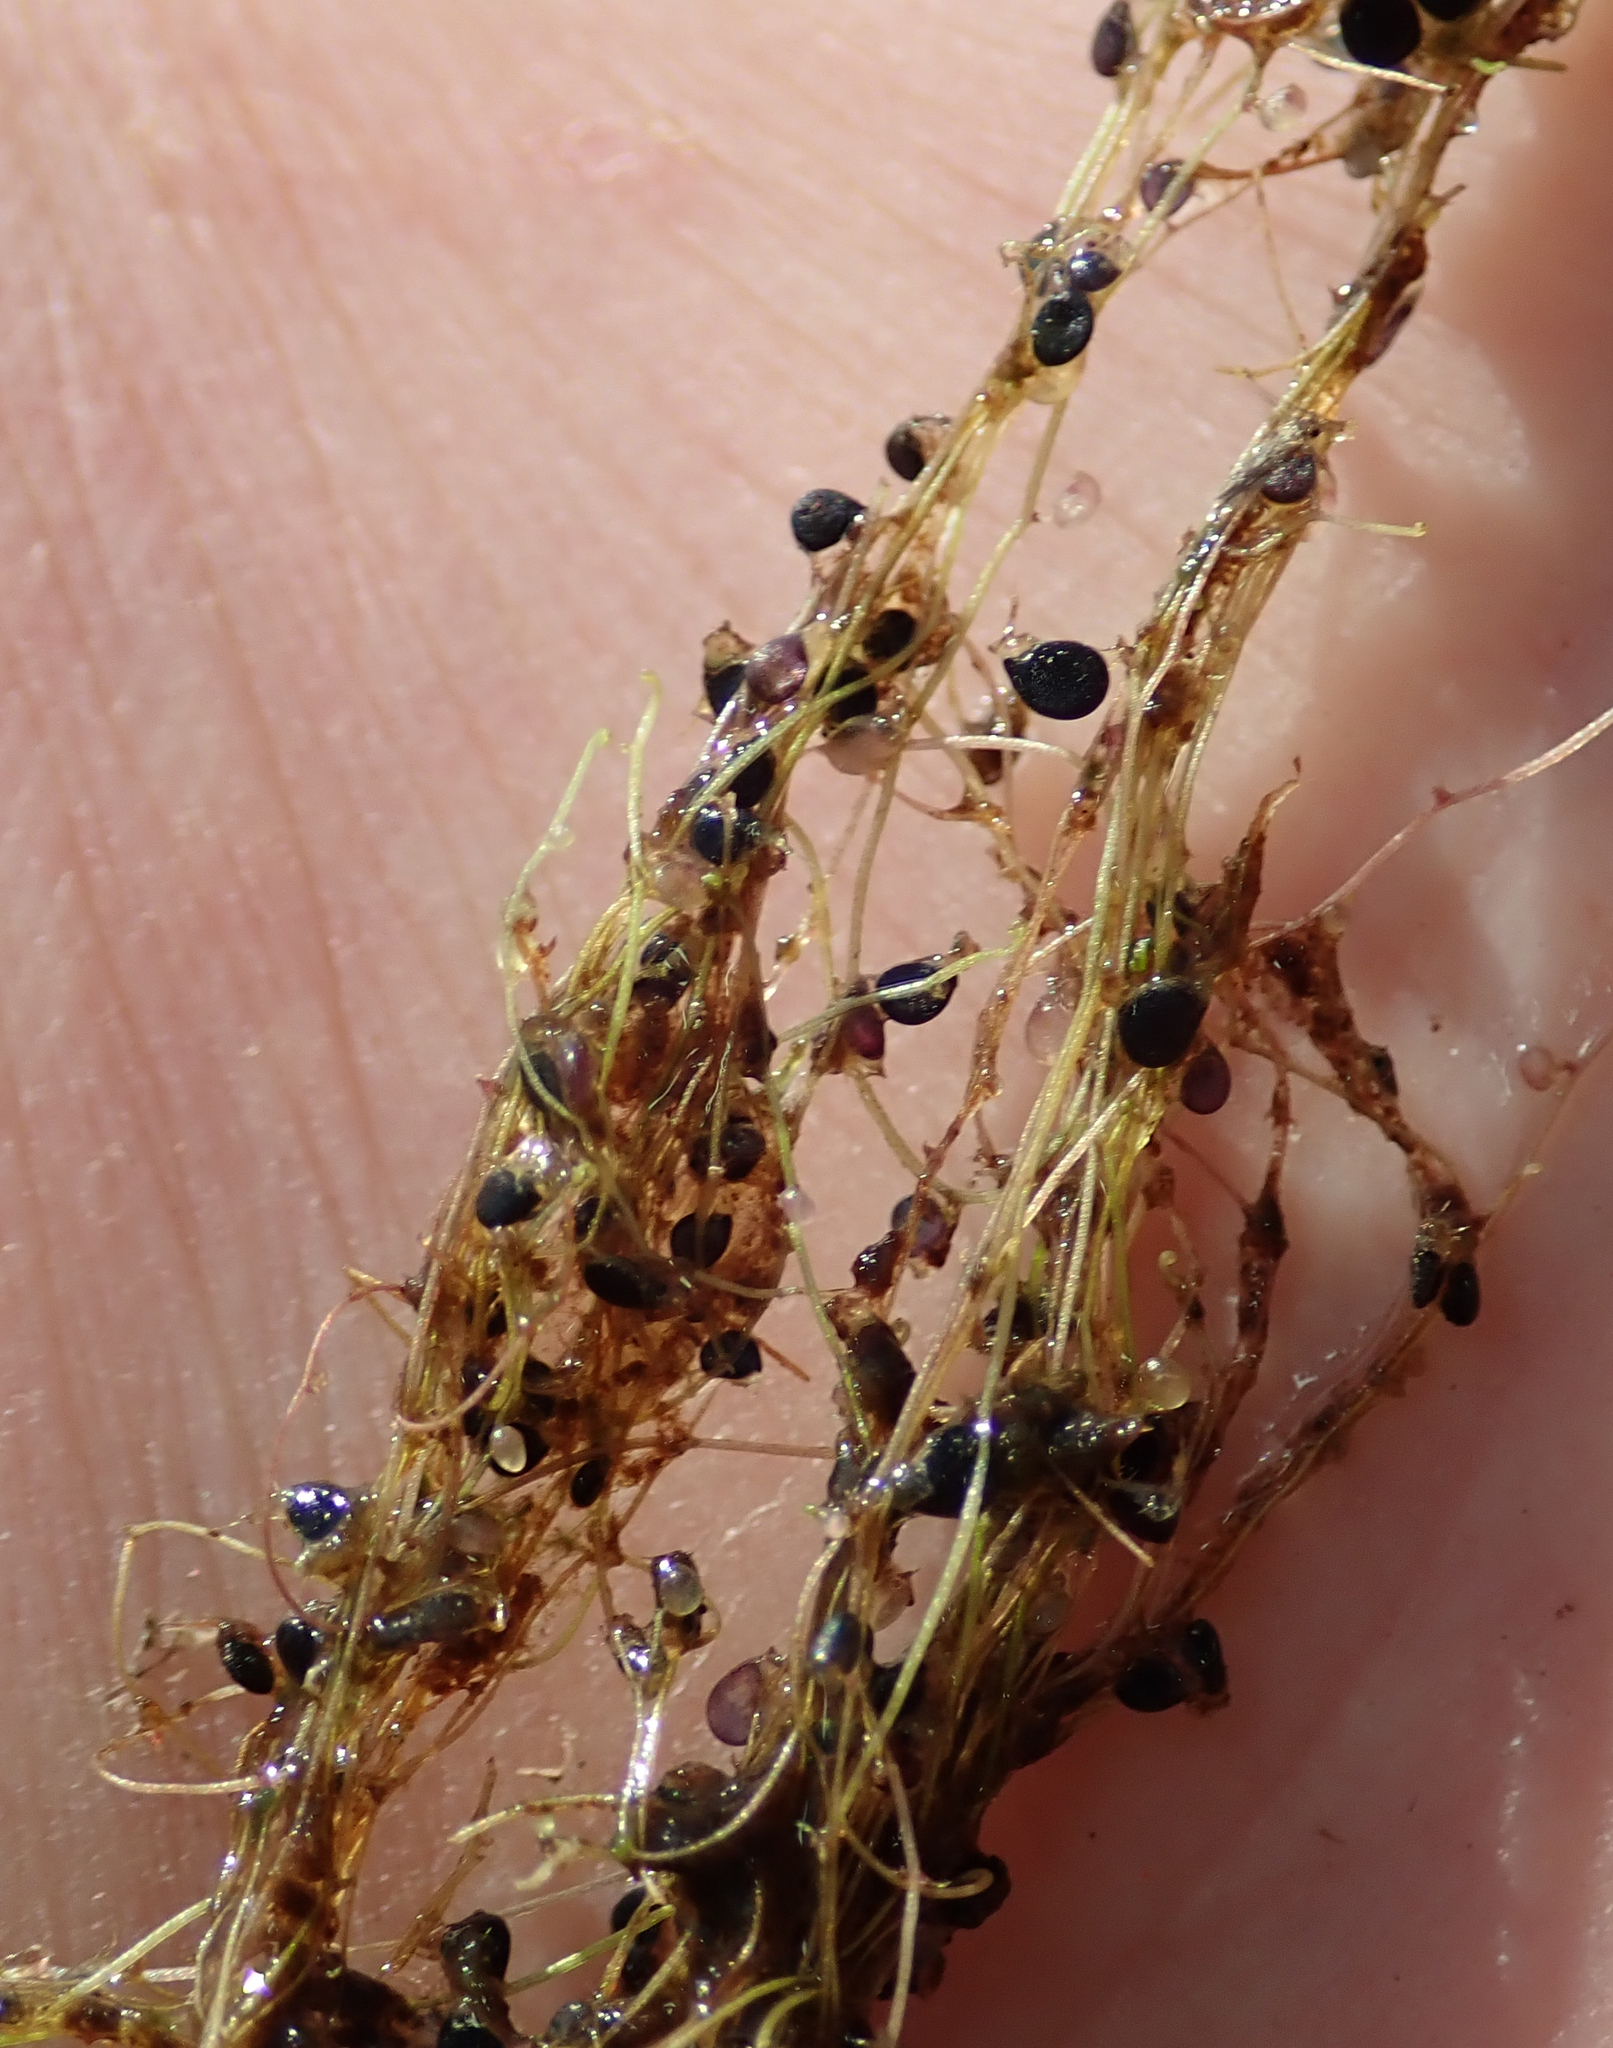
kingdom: Plantae
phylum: Tracheophyta
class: Magnoliopsida
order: Lamiales
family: Lentibulariaceae
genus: Utricularia
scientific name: Utricularia gibba
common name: Humped bladderwort
